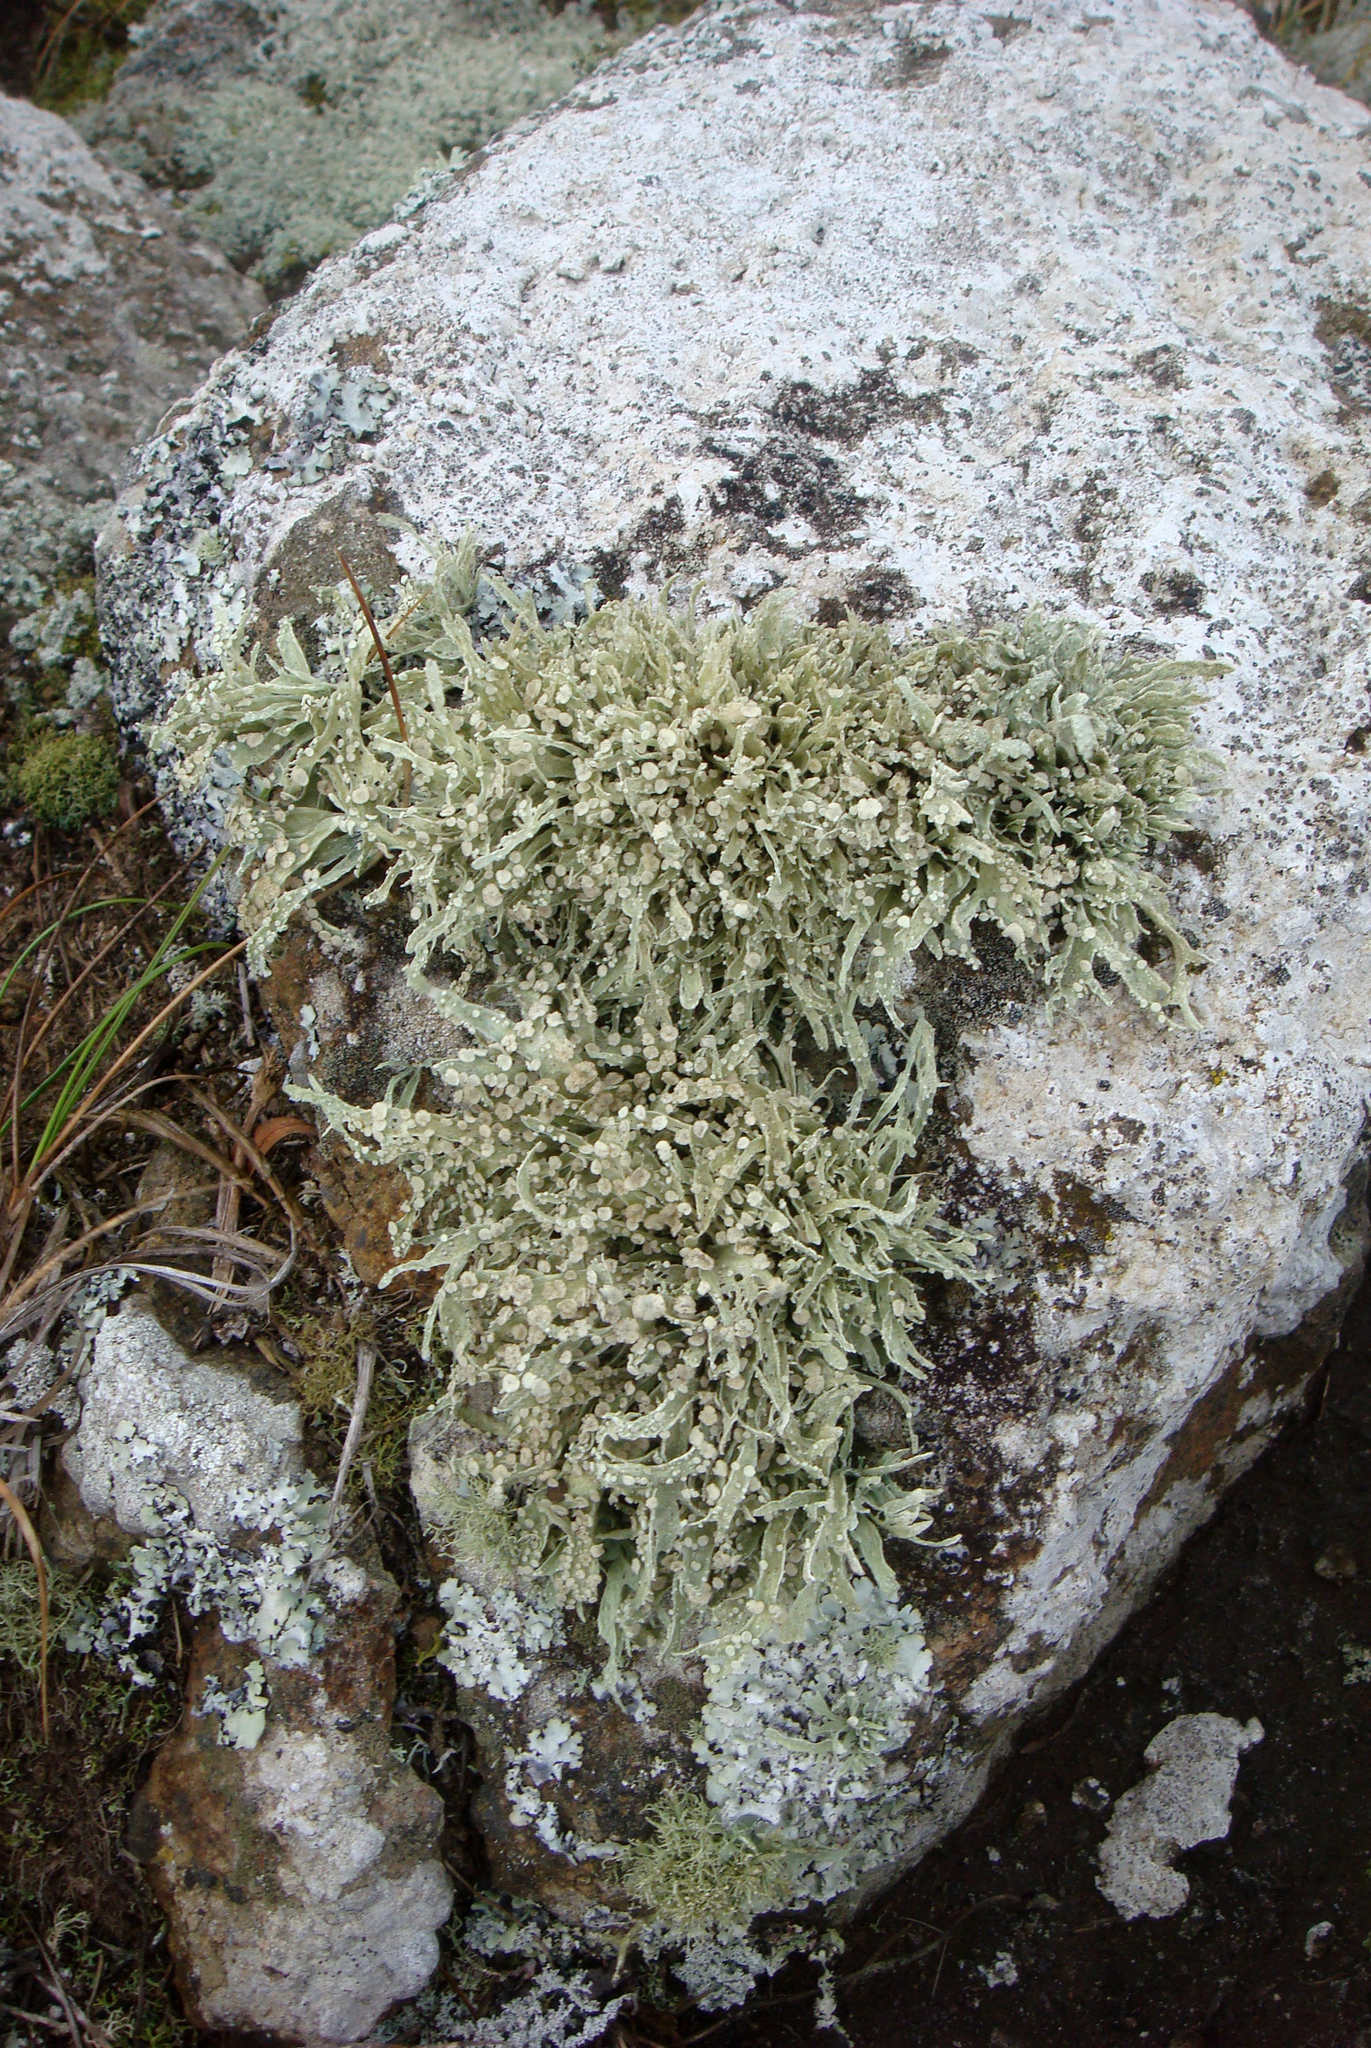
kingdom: Fungi
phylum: Ascomycota
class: Lecanoromycetes
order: Lecanorales
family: Ramalinaceae
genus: Ramalina
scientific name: Ramalina celastri
